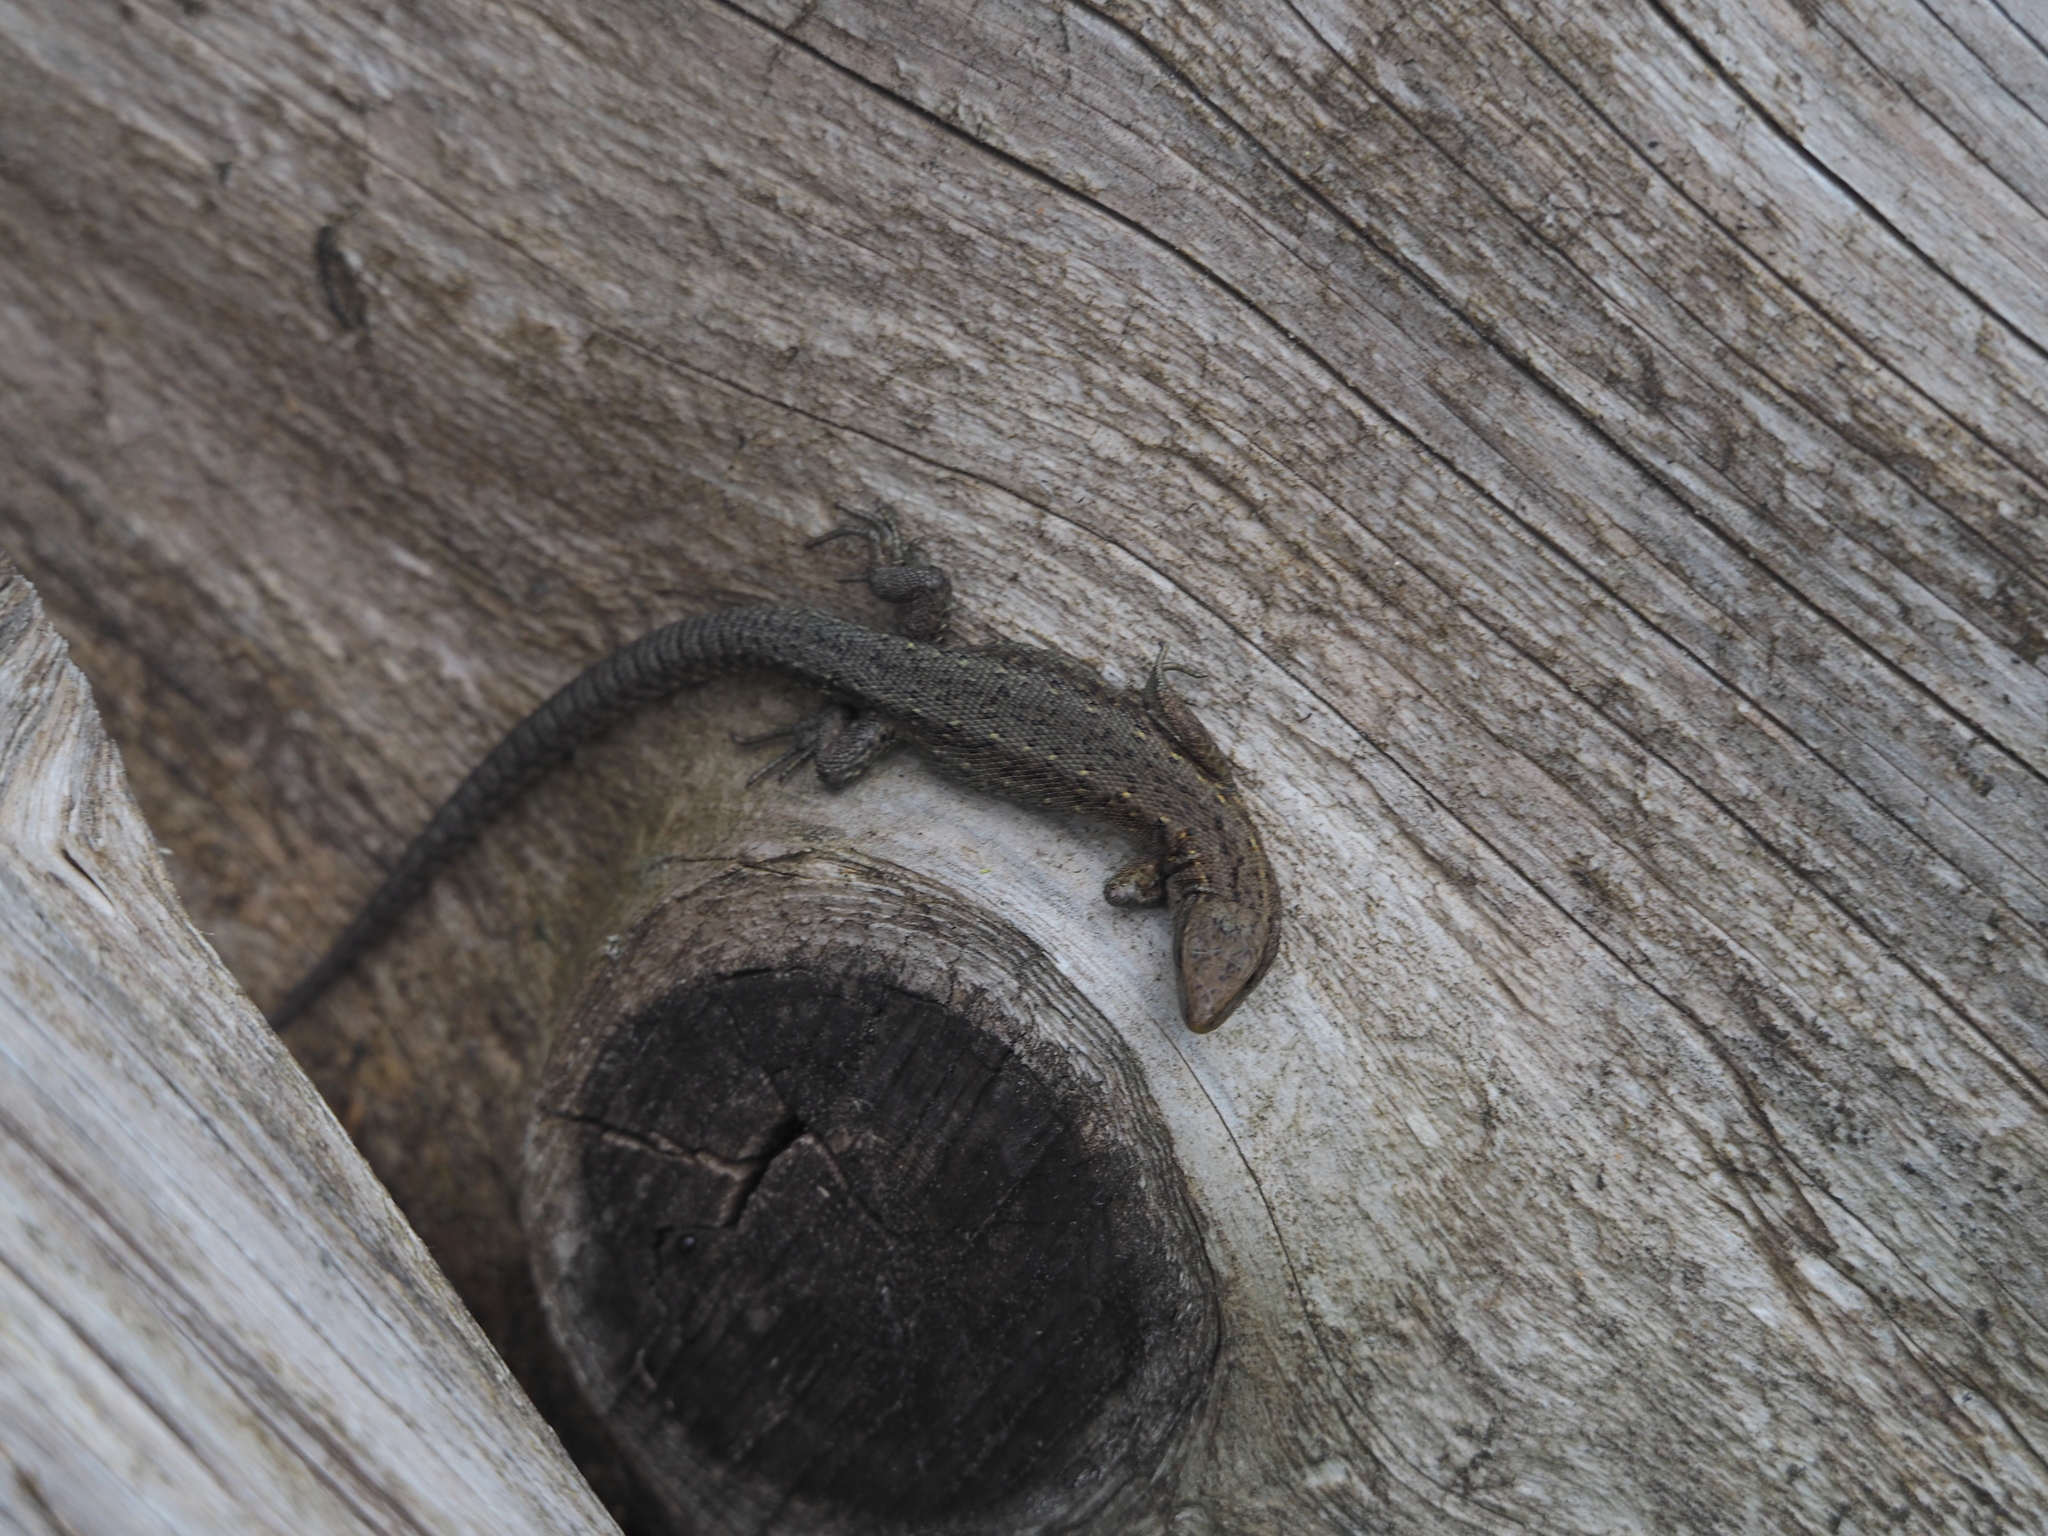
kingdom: Animalia
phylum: Chordata
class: Squamata
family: Lacertidae
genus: Zootoca
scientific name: Zootoca vivipara
